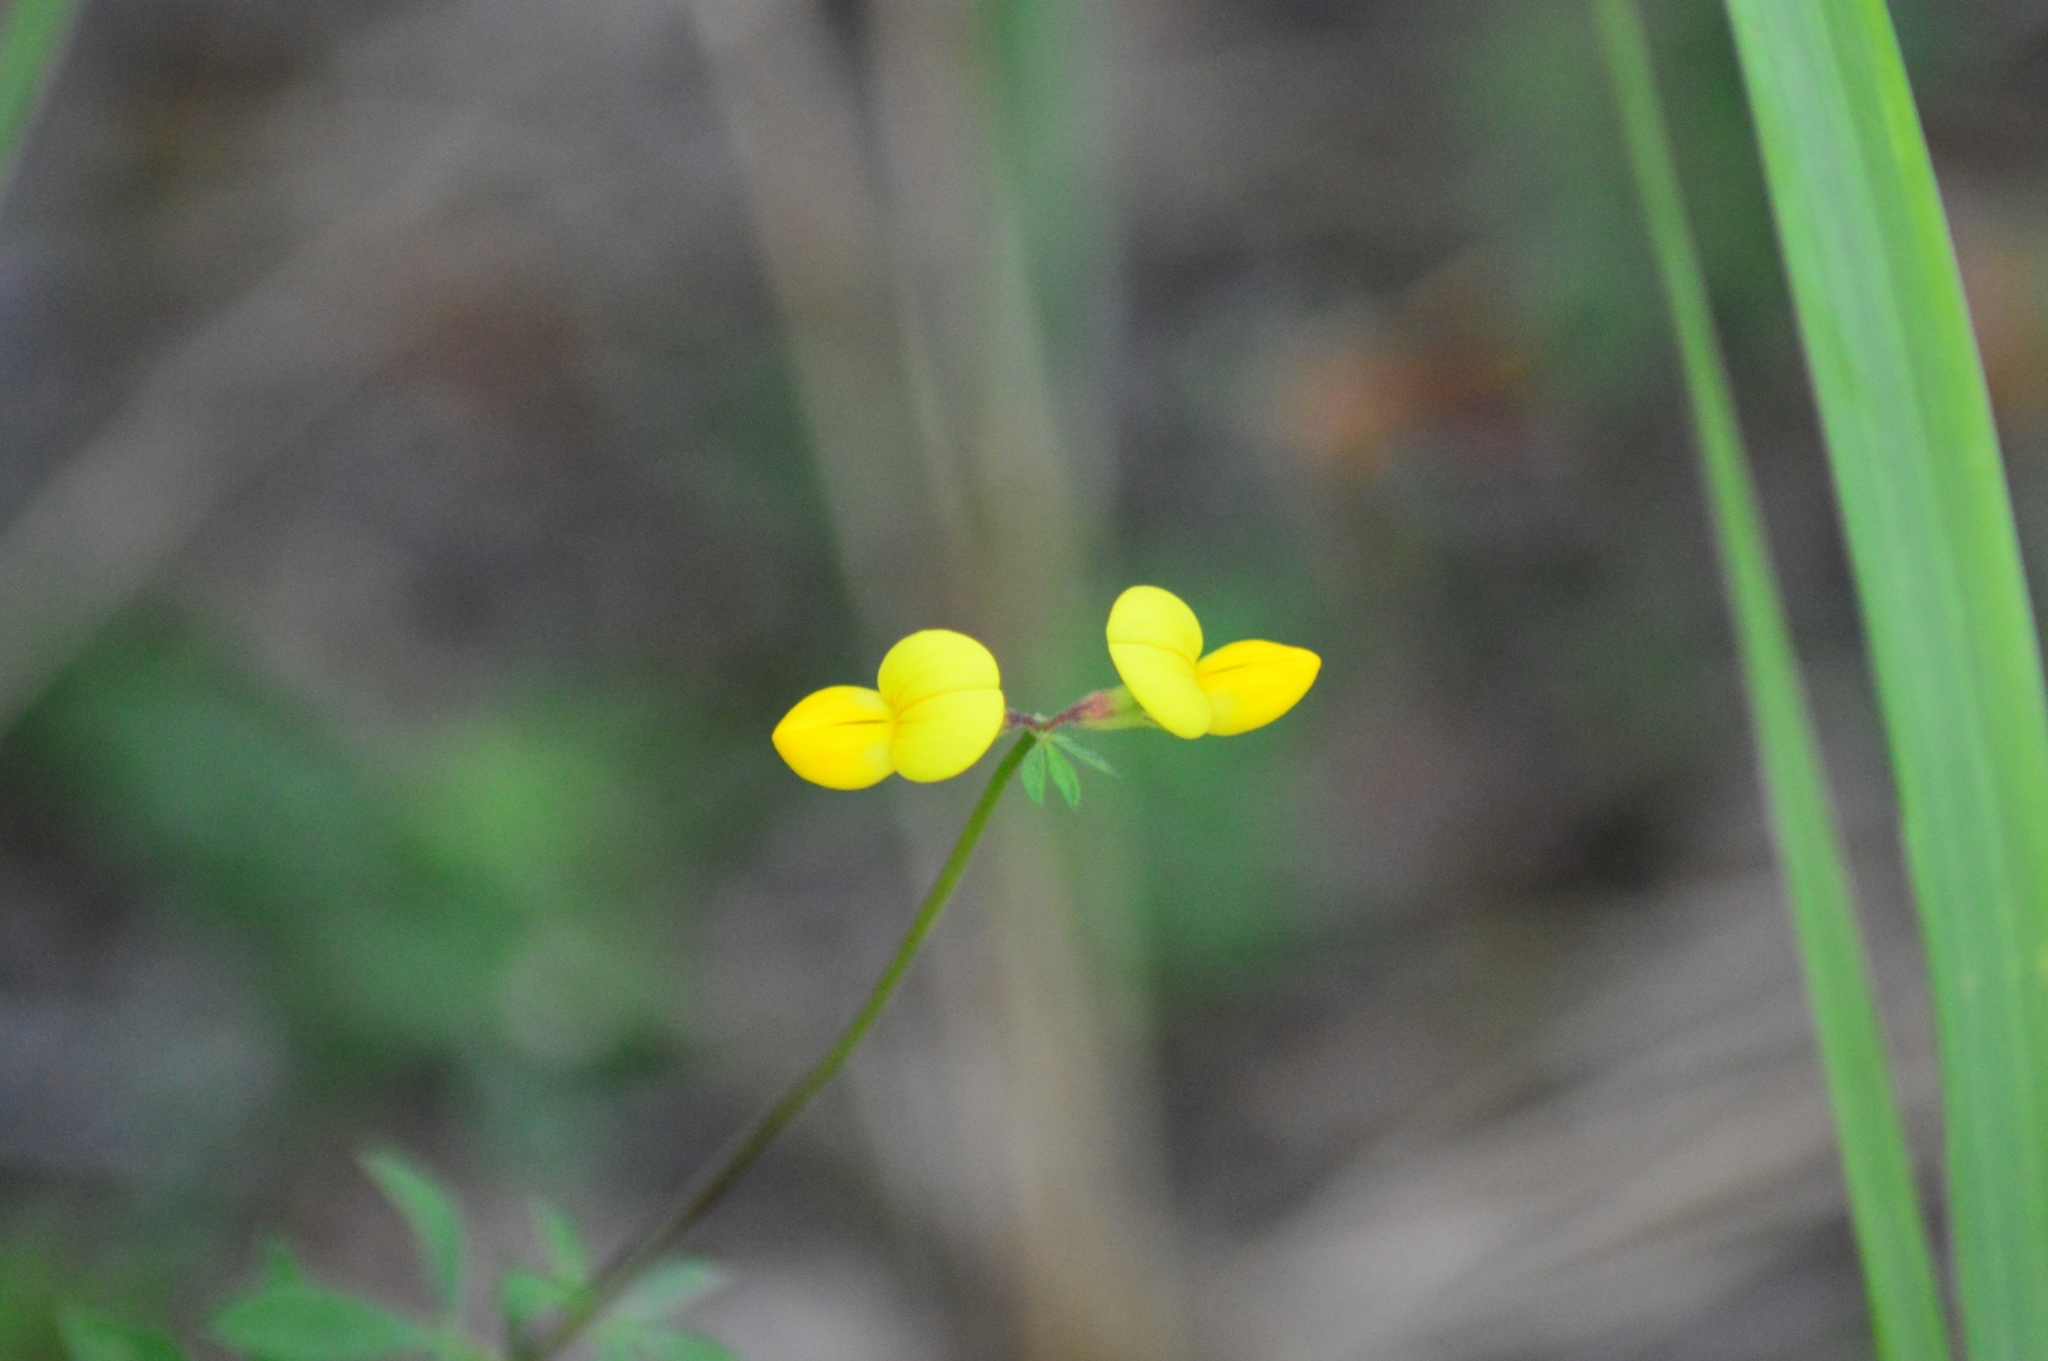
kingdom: Plantae
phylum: Tracheophyta
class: Magnoliopsida
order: Fabales
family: Fabaceae
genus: Lotus
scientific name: Lotus corniculatus
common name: Common bird's-foot-trefoil
